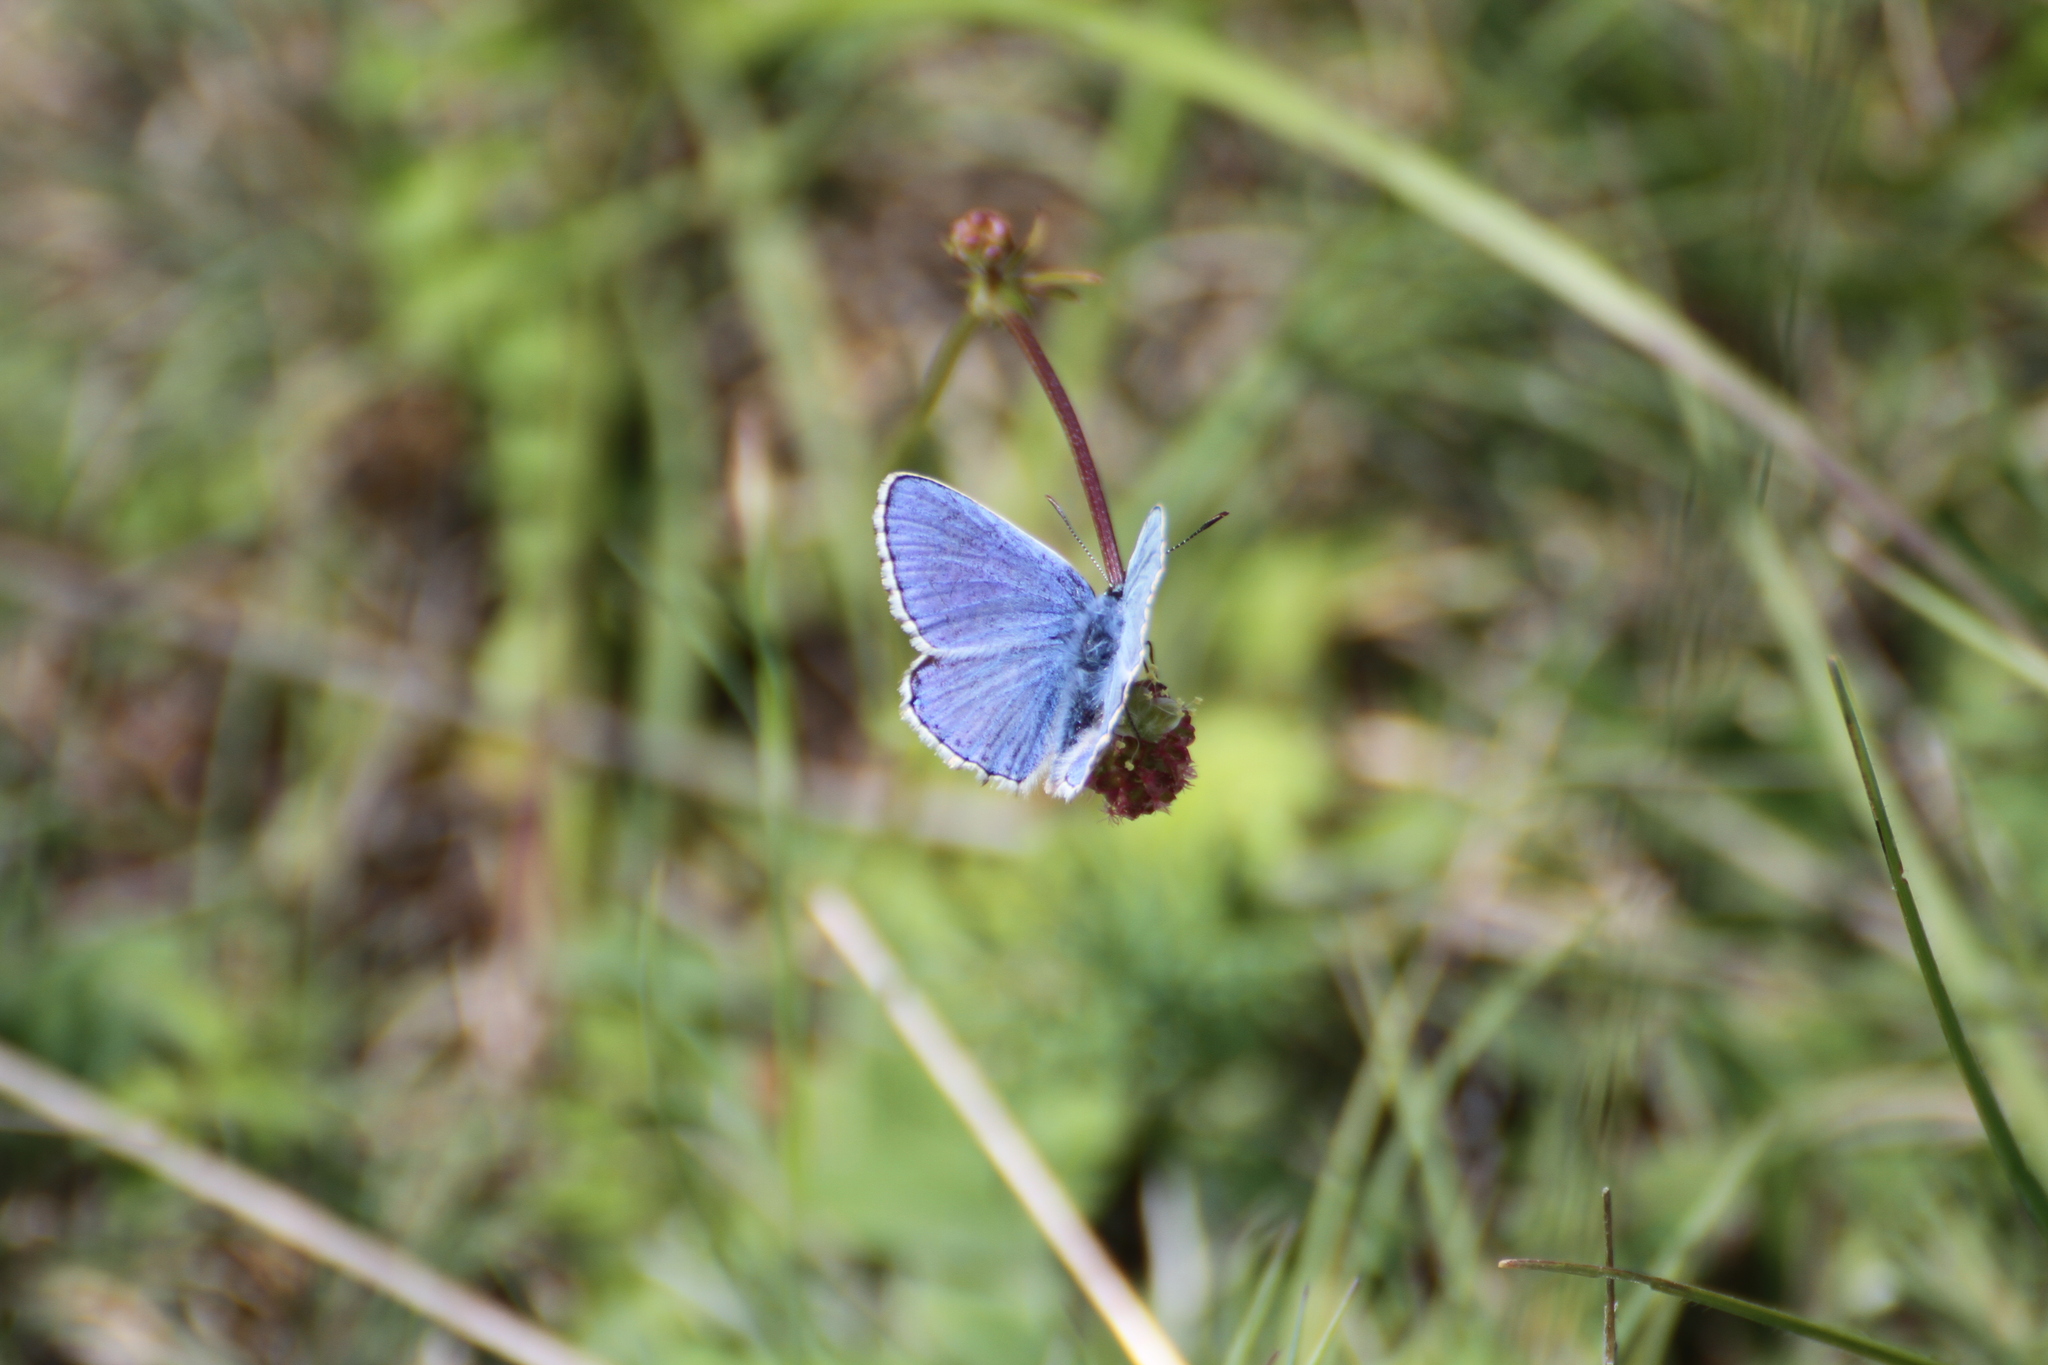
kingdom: Animalia
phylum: Arthropoda
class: Insecta
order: Lepidoptera
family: Lycaenidae
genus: Polyommatus
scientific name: Polyommatus icarus
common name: Common blue
